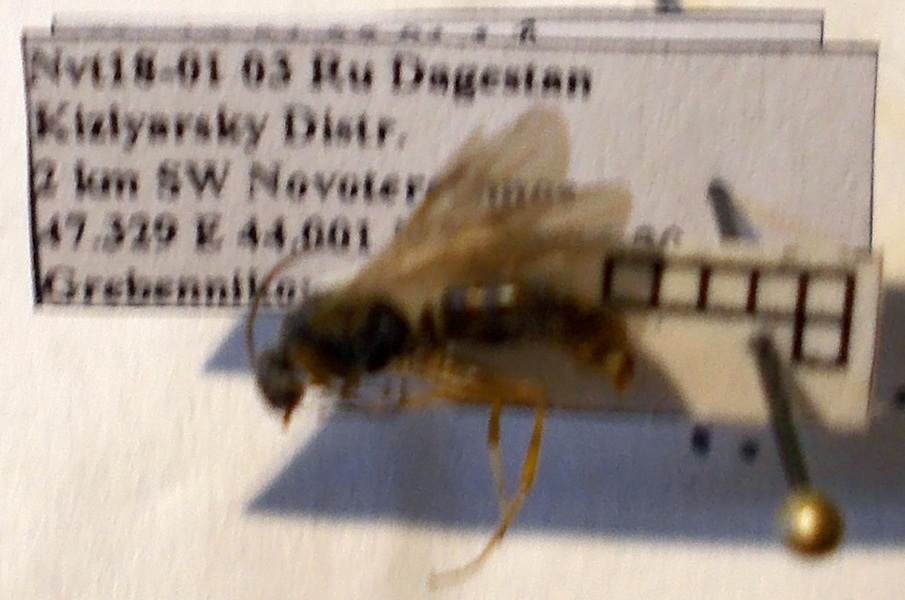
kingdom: Animalia
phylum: Arthropoda
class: Insecta
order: Hymenoptera
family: Formicidae
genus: Formica
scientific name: Formica cunicularia
